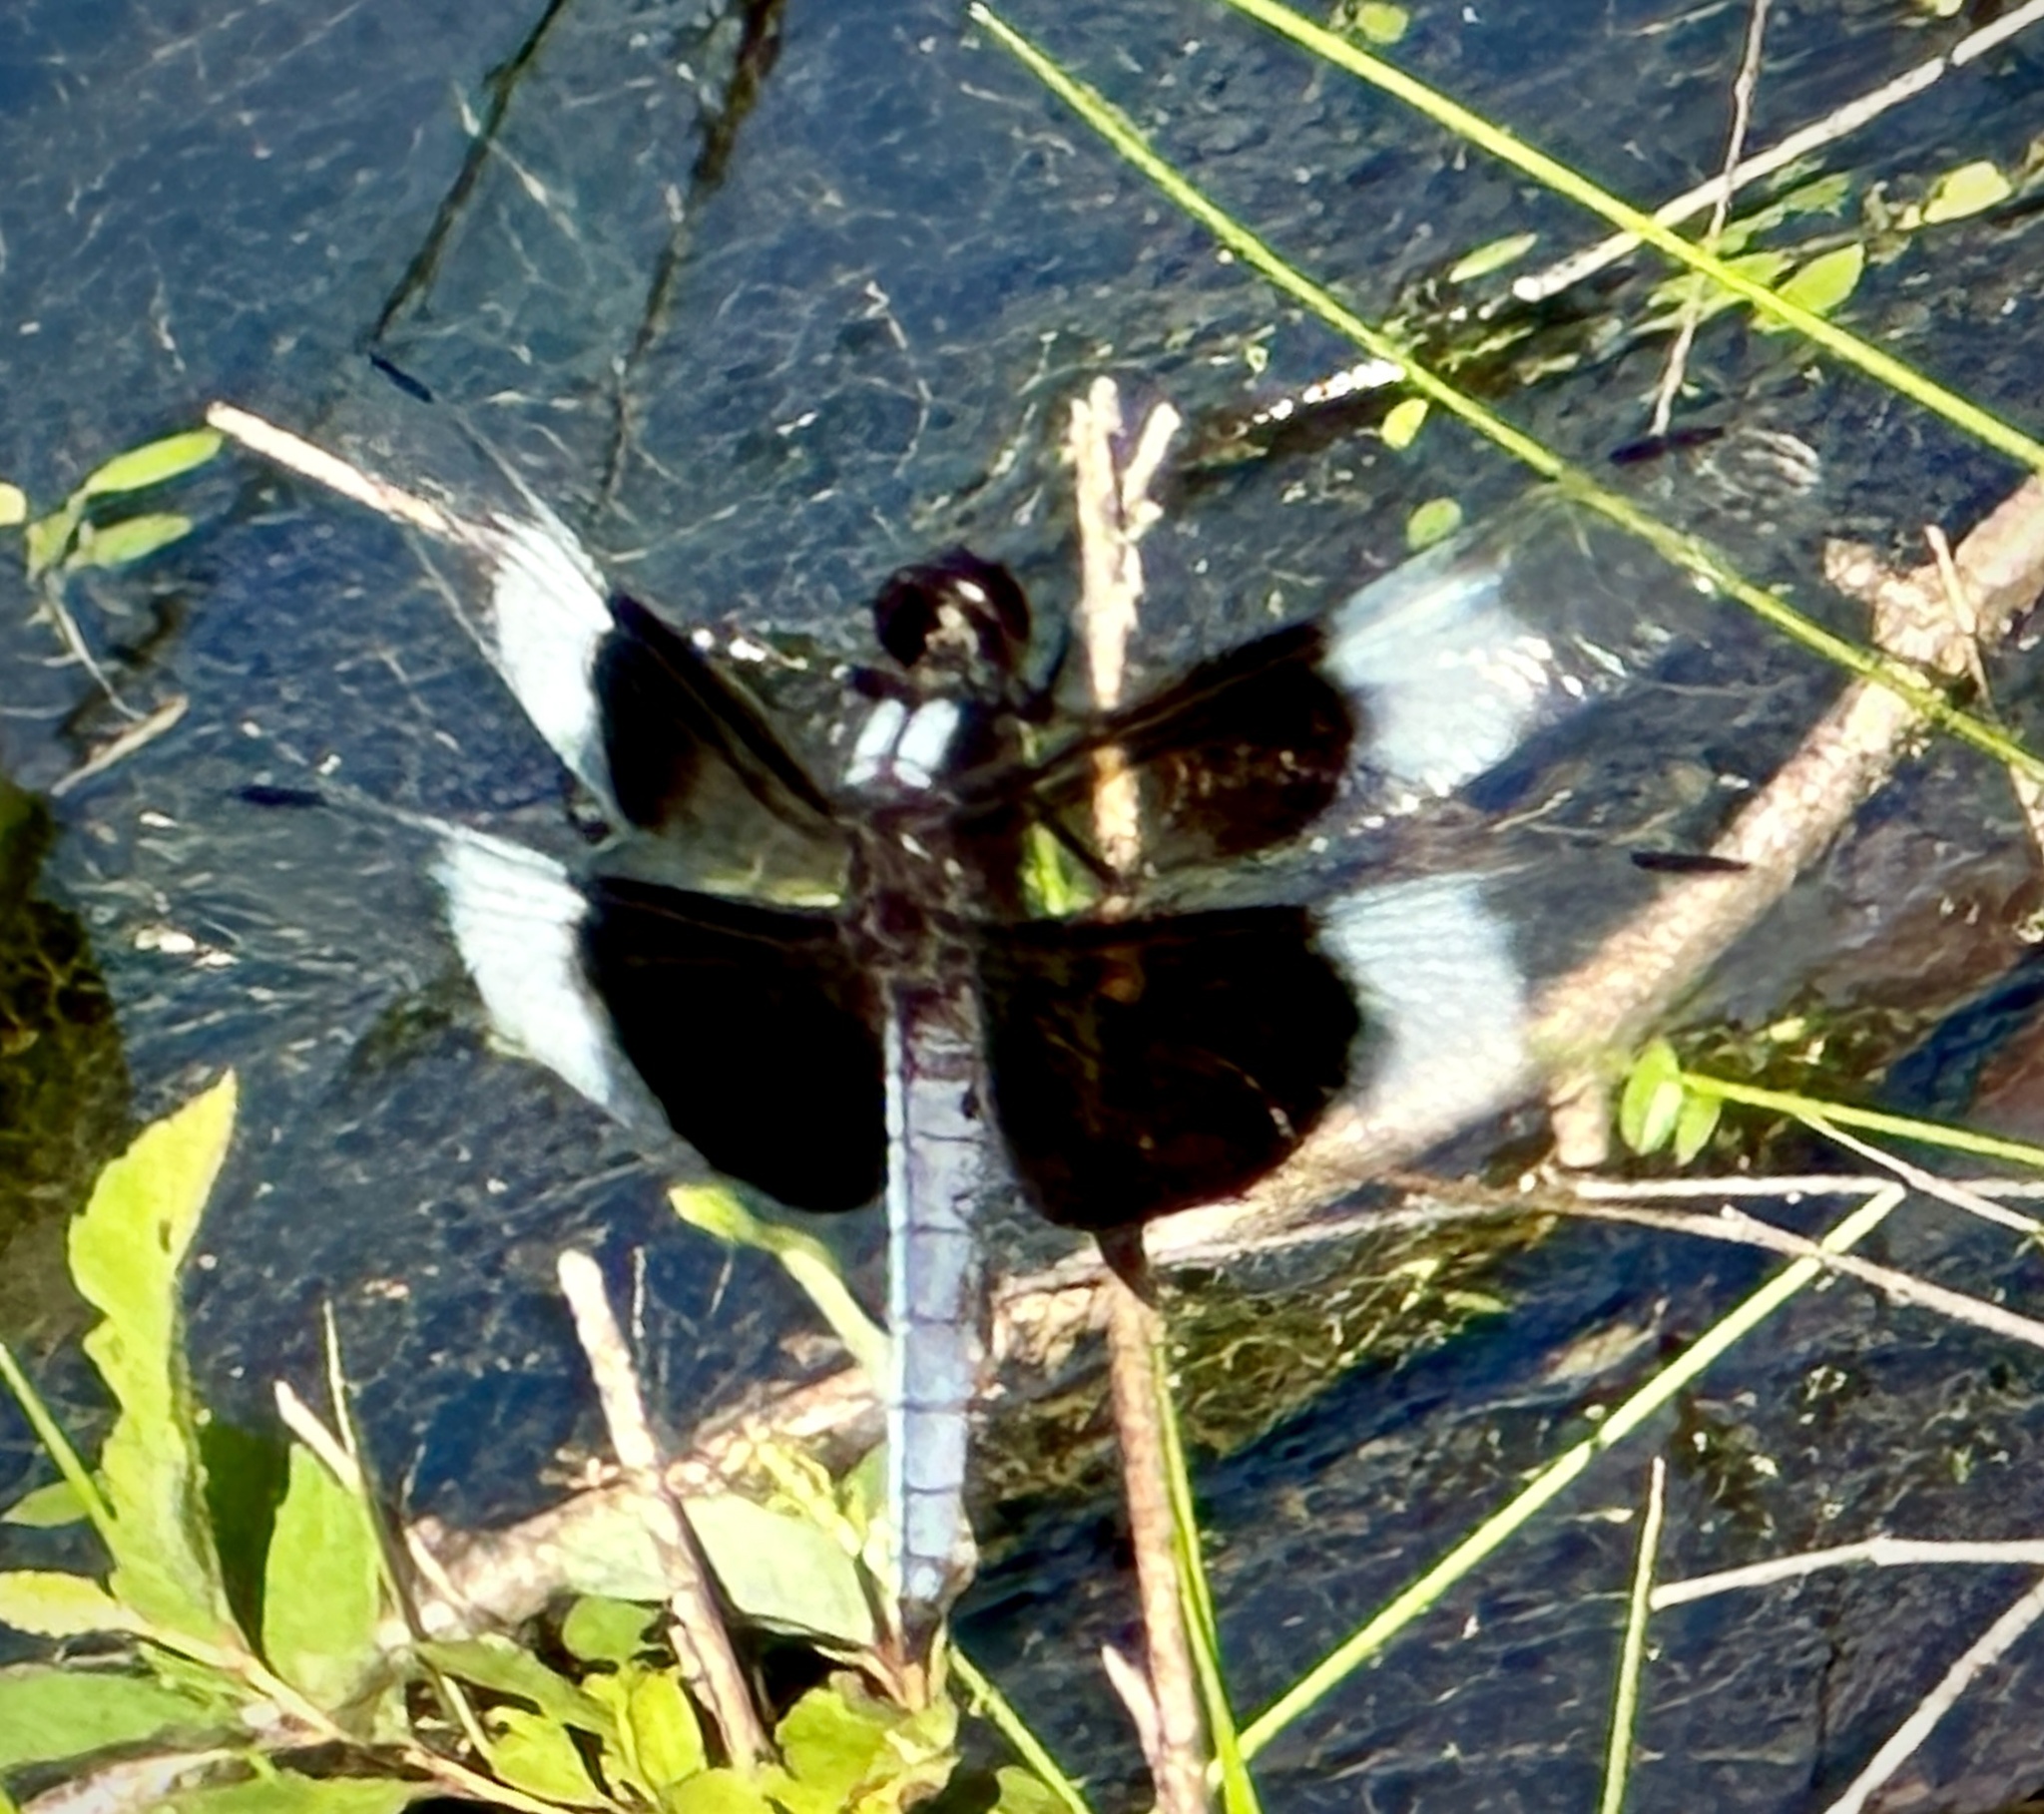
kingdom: Animalia
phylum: Arthropoda
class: Insecta
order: Odonata
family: Libellulidae
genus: Libellula
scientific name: Libellula luctuosa
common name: Widow skimmer
